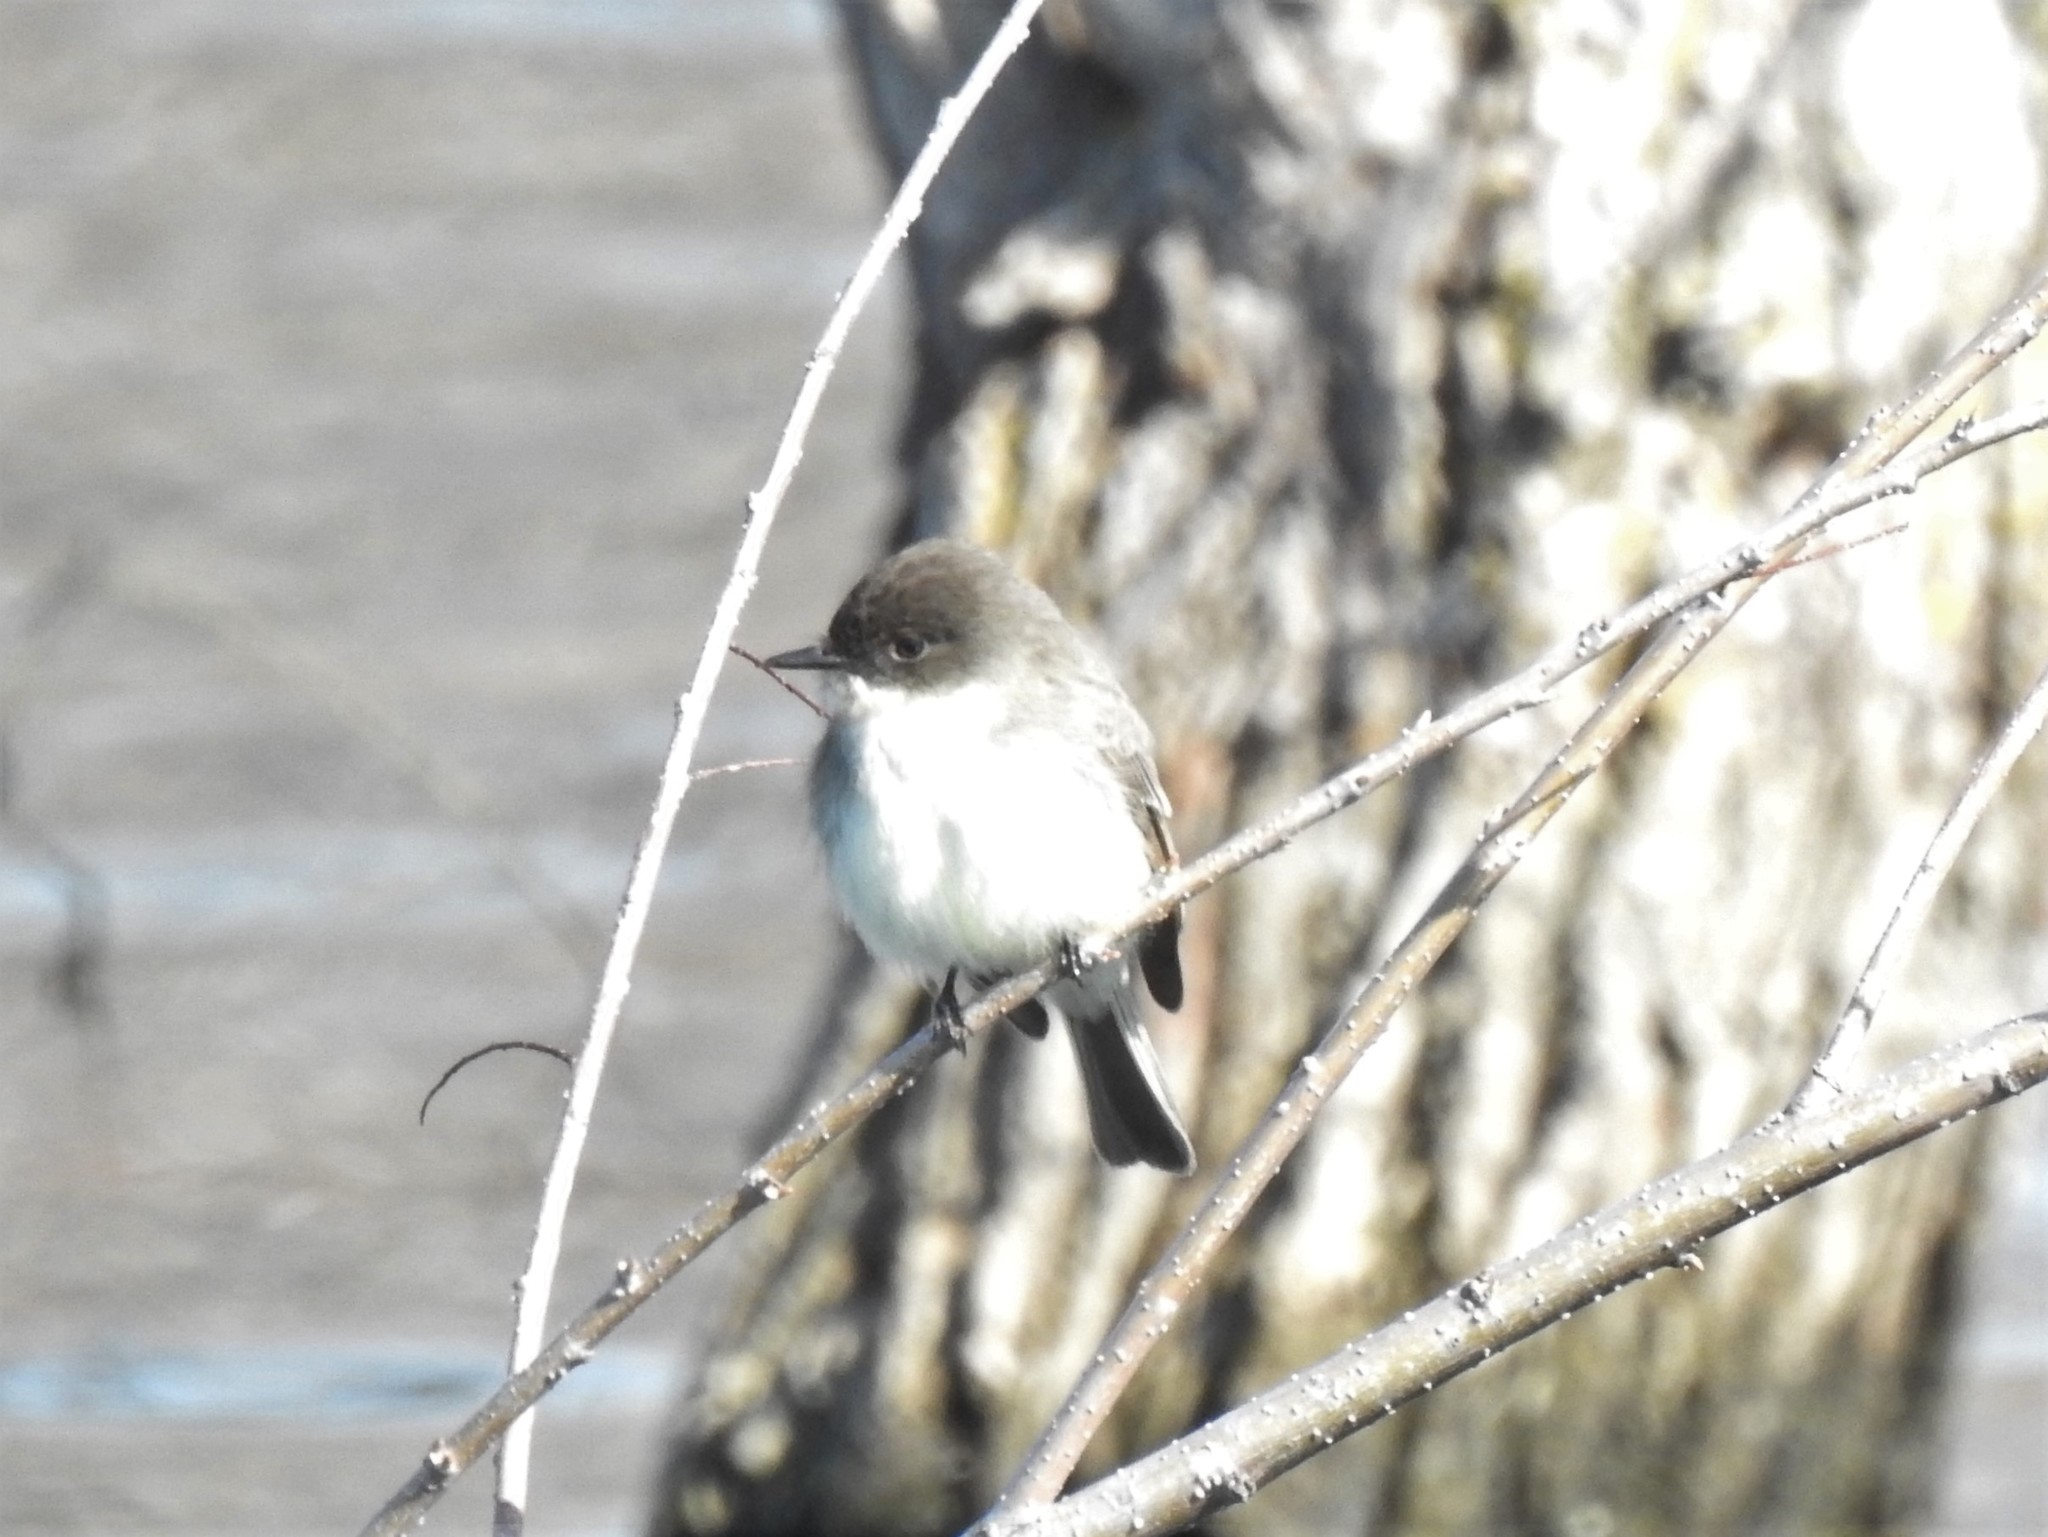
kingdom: Animalia
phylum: Chordata
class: Aves
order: Passeriformes
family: Tyrannidae
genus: Sayornis
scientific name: Sayornis phoebe
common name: Eastern phoebe
